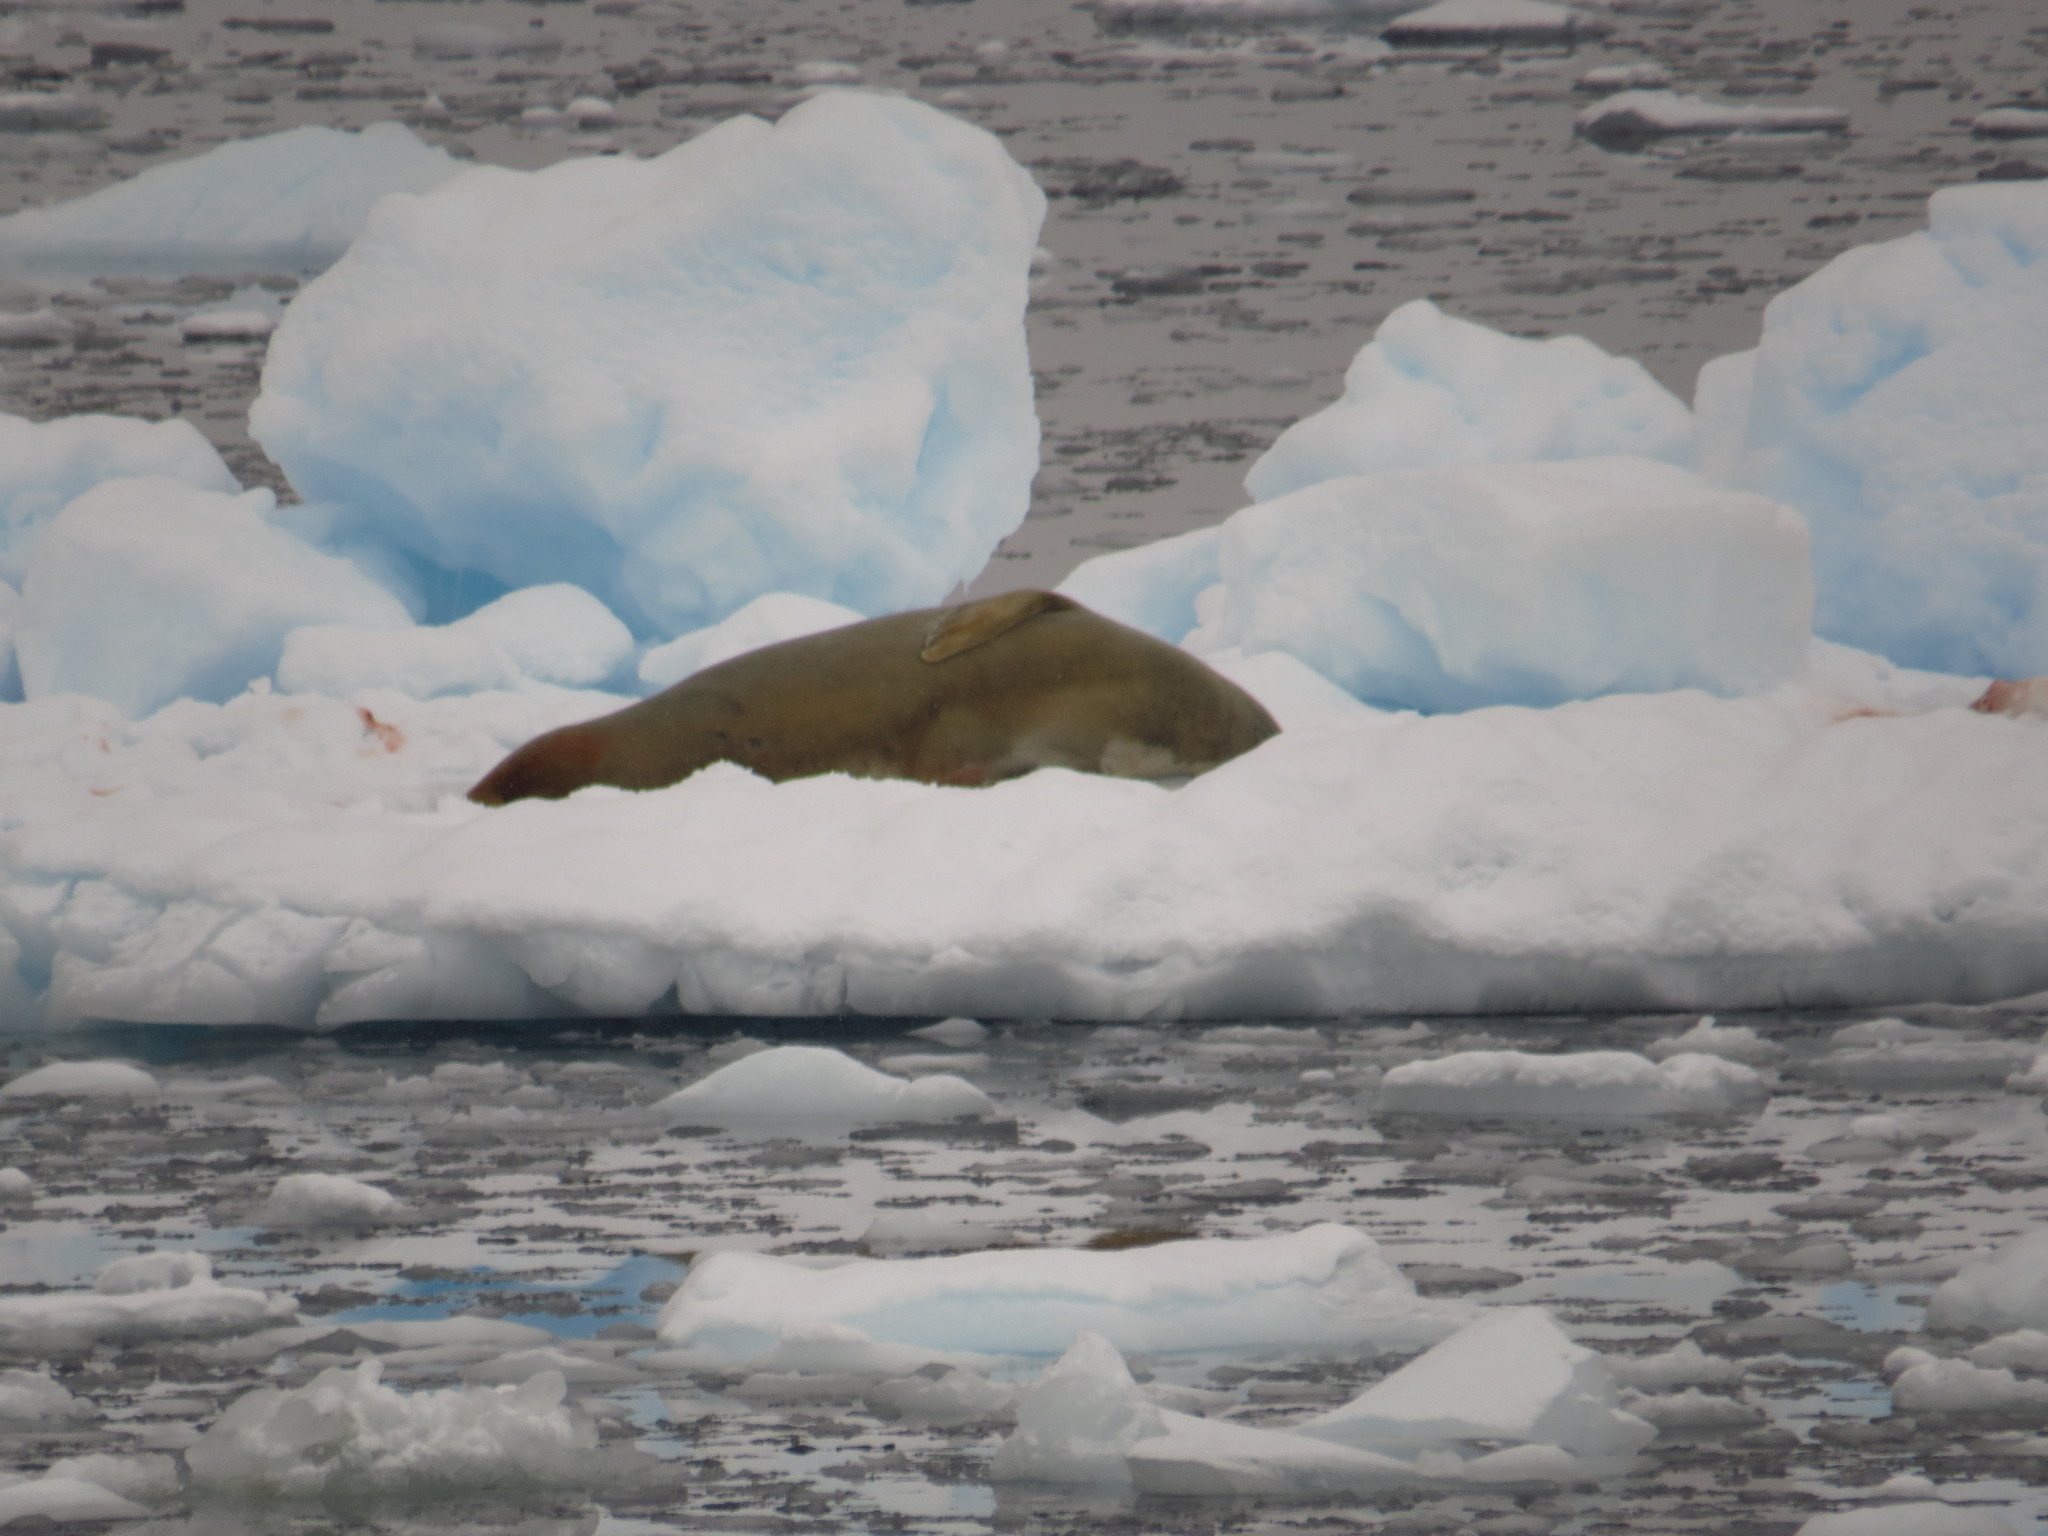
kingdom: Animalia
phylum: Chordata
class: Mammalia
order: Carnivora
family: Phocidae
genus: Lobodon
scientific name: Lobodon carcinophaga
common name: Crabeater seal
